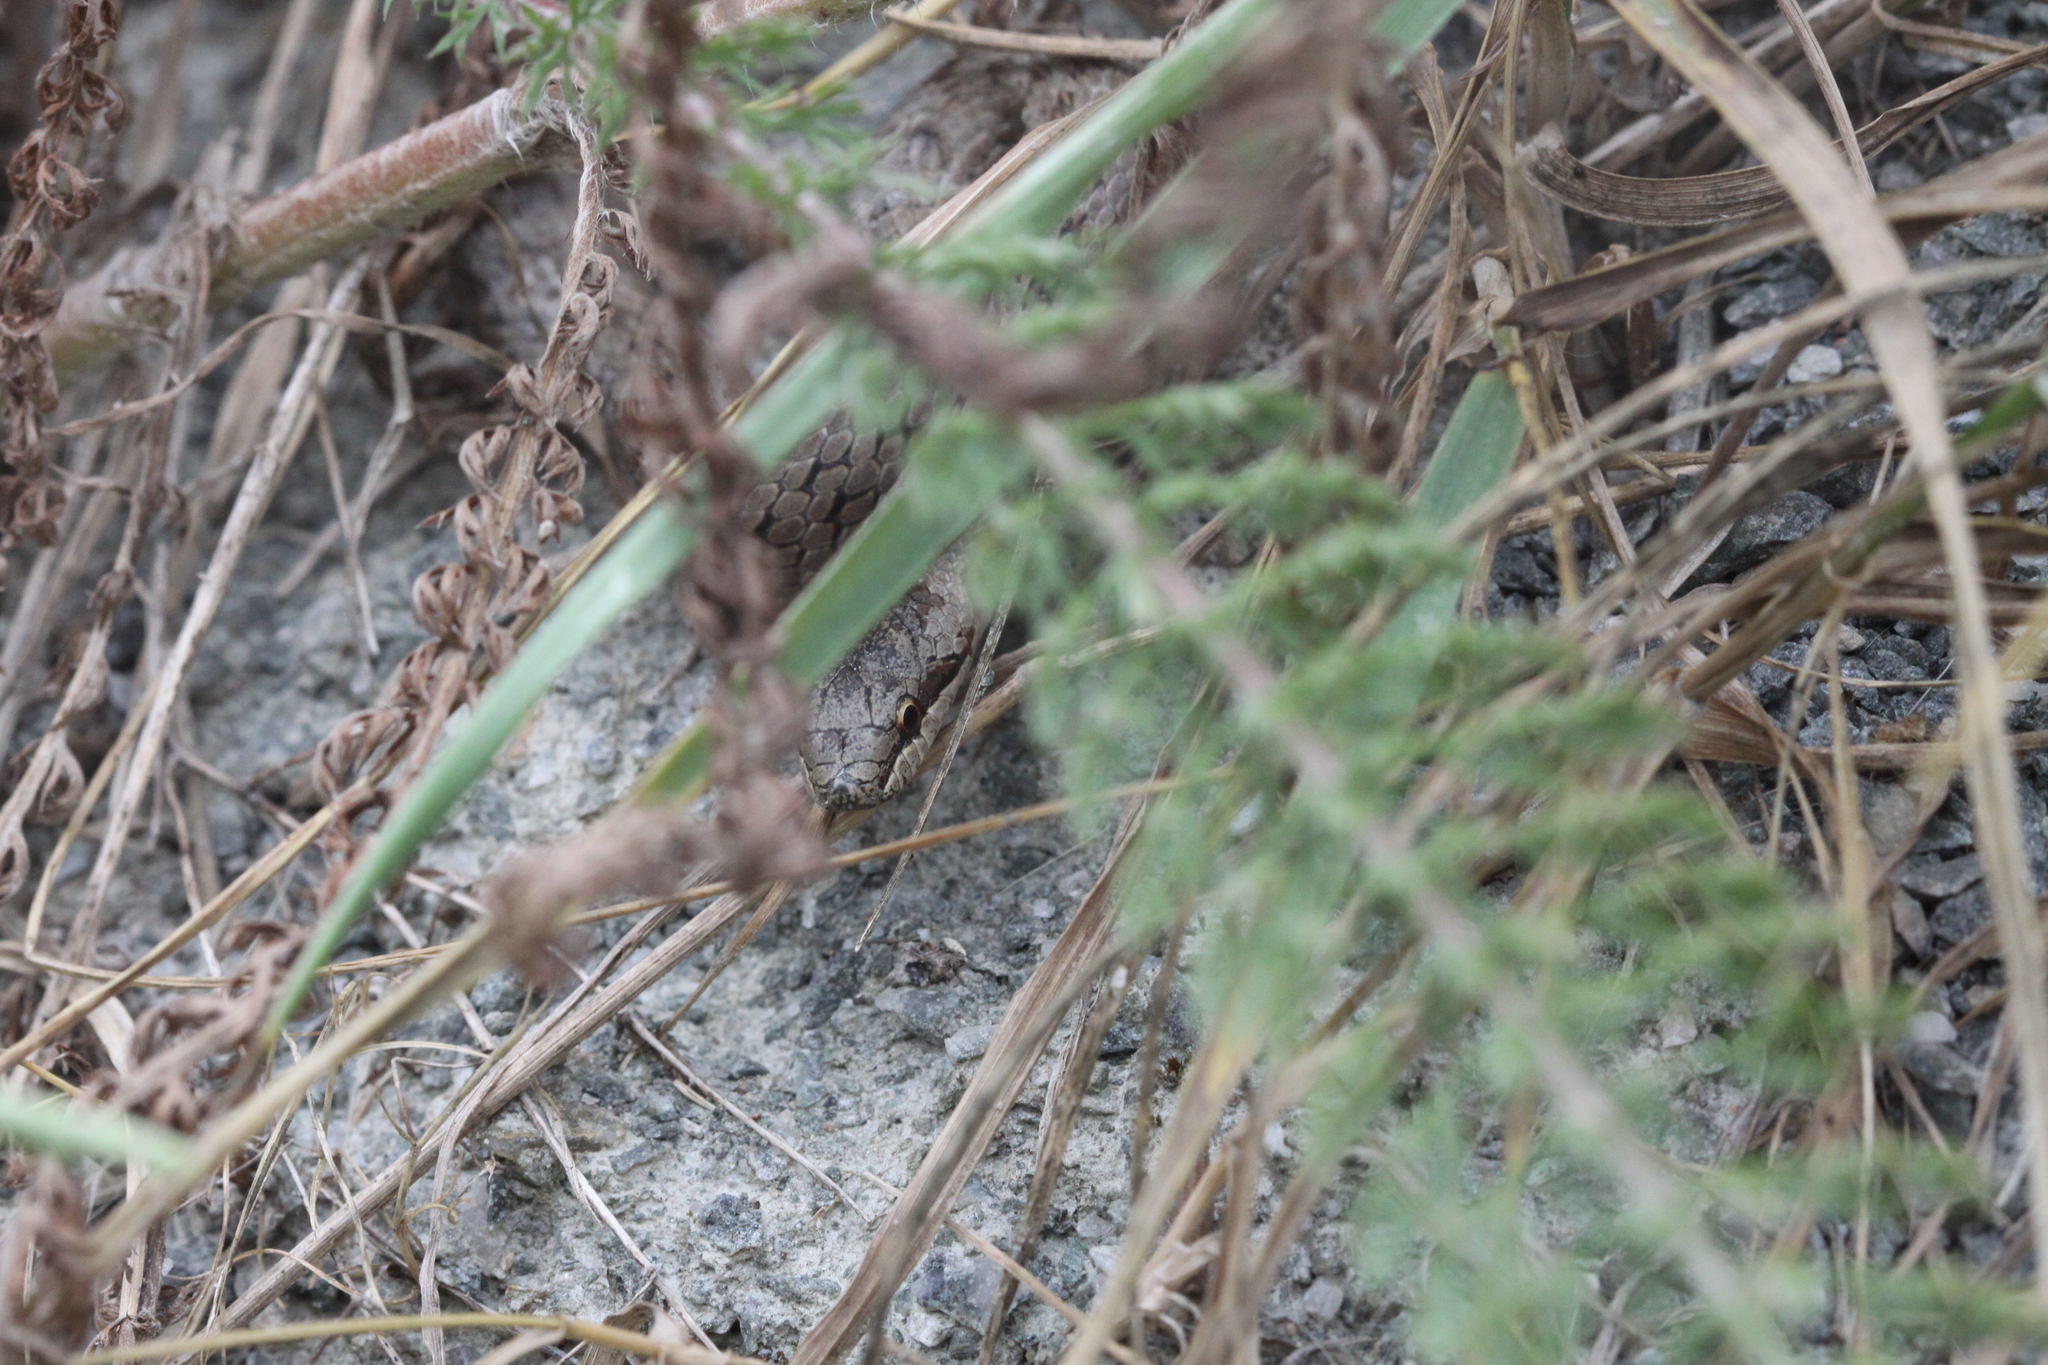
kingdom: Animalia
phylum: Chordata
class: Squamata
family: Colubridae
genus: Coronella
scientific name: Coronella austriaca
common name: Smooth snake
